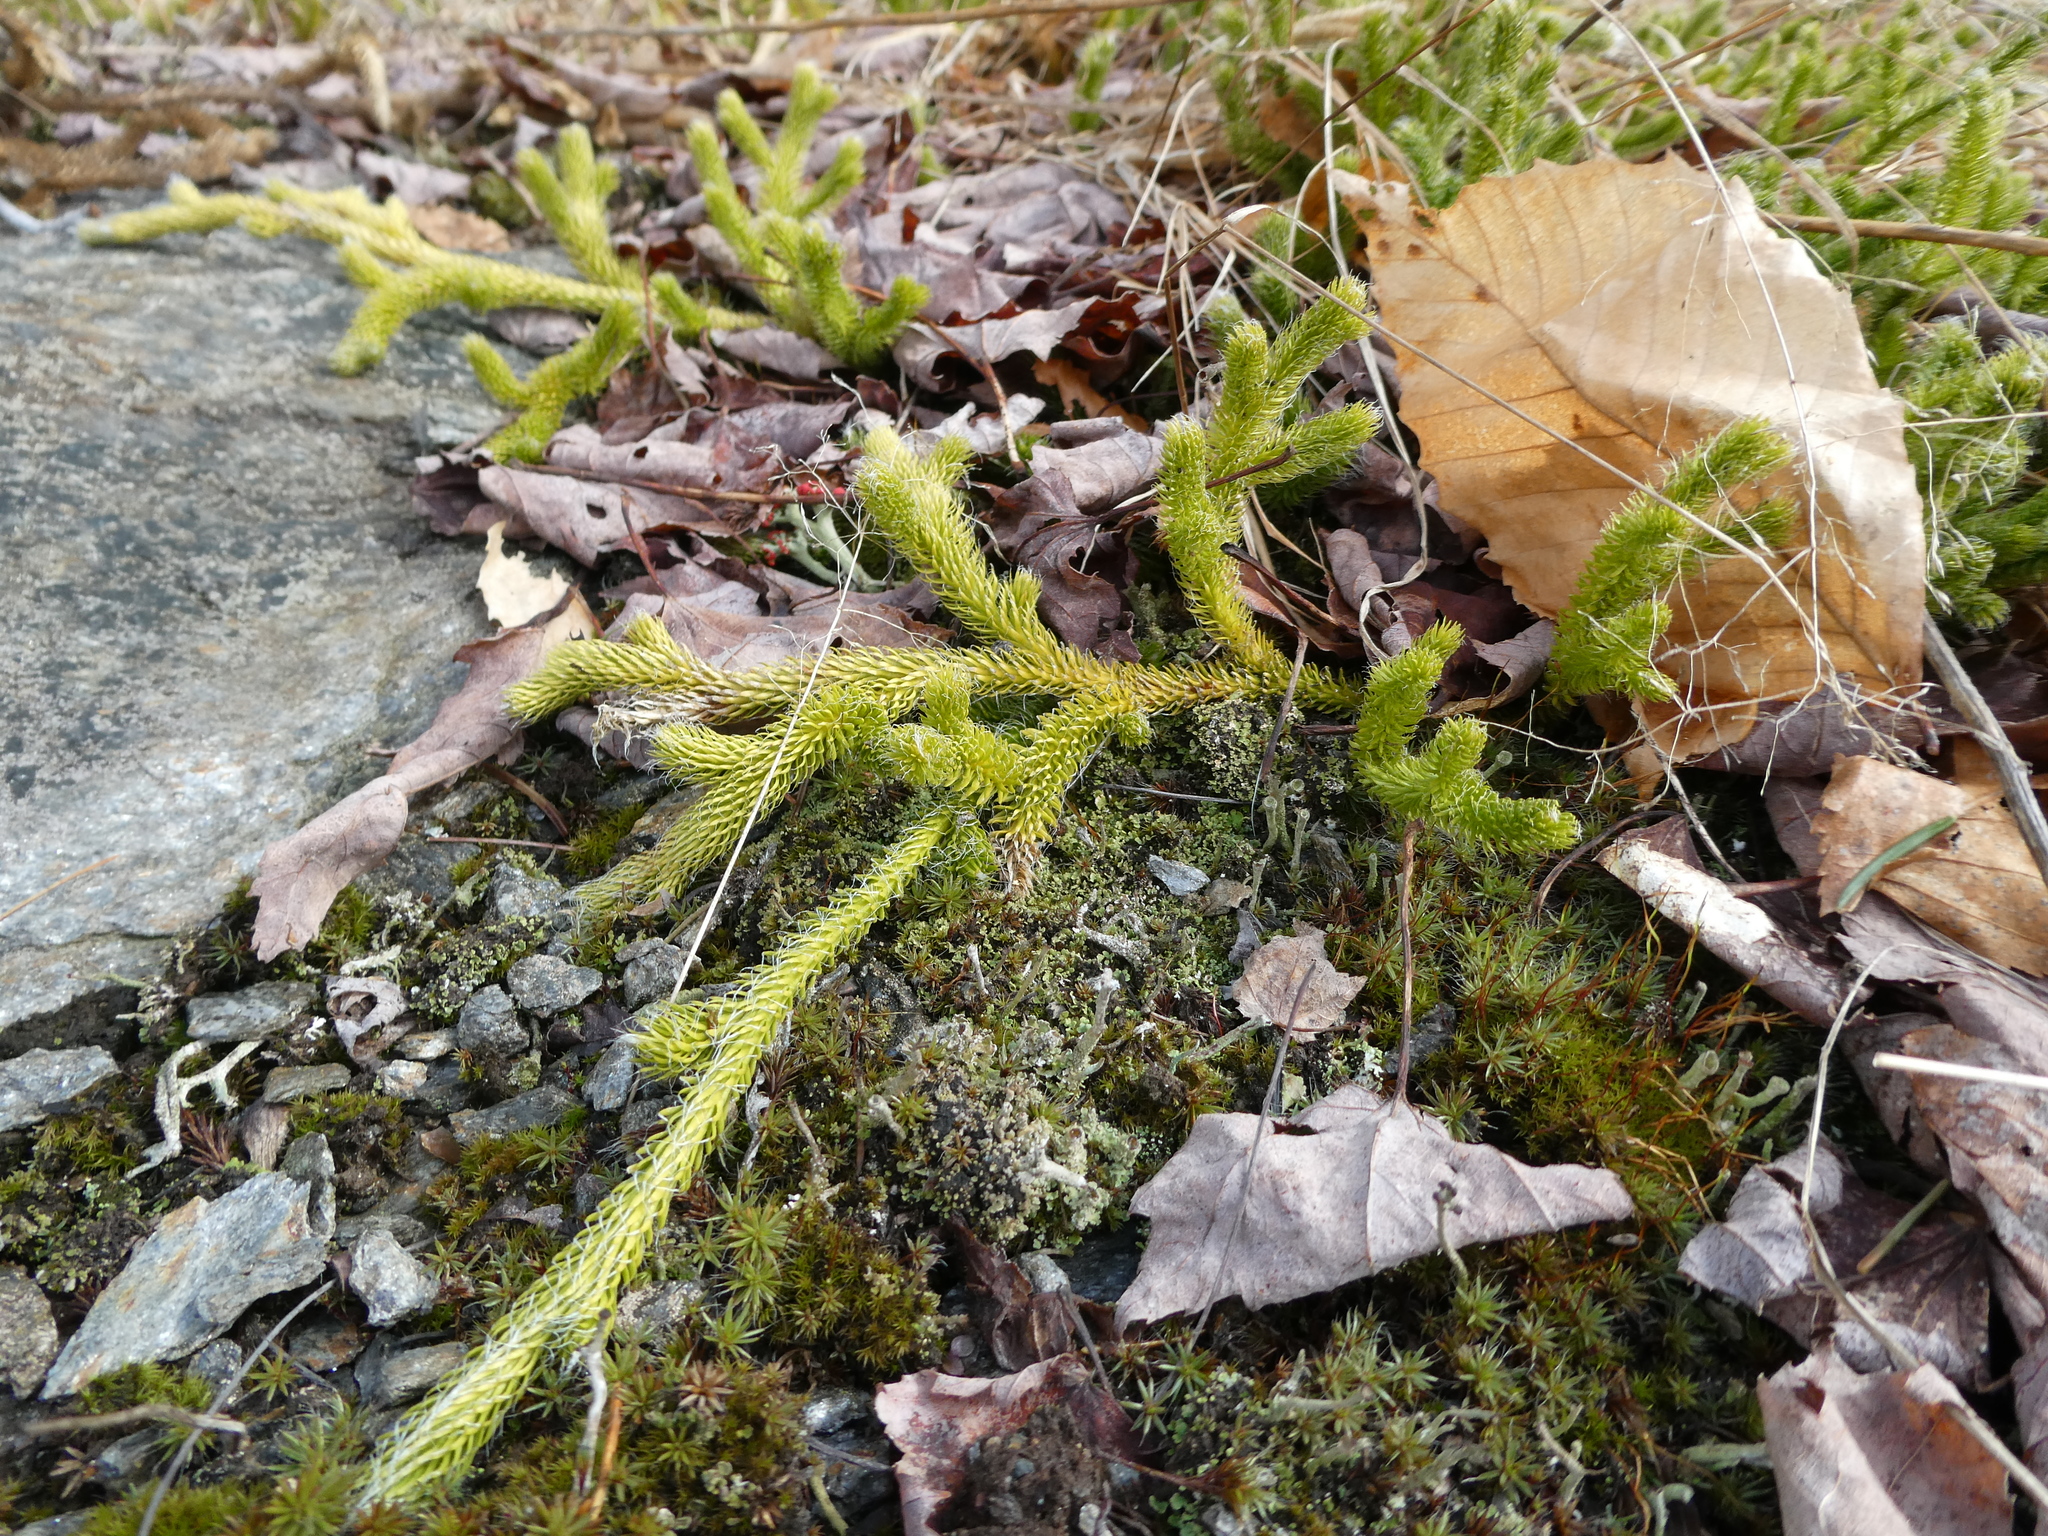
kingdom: Plantae
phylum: Tracheophyta
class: Lycopodiopsida
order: Lycopodiales
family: Lycopodiaceae
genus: Lycopodium
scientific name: Lycopodium clavatum
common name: Stag's-horn clubmoss
